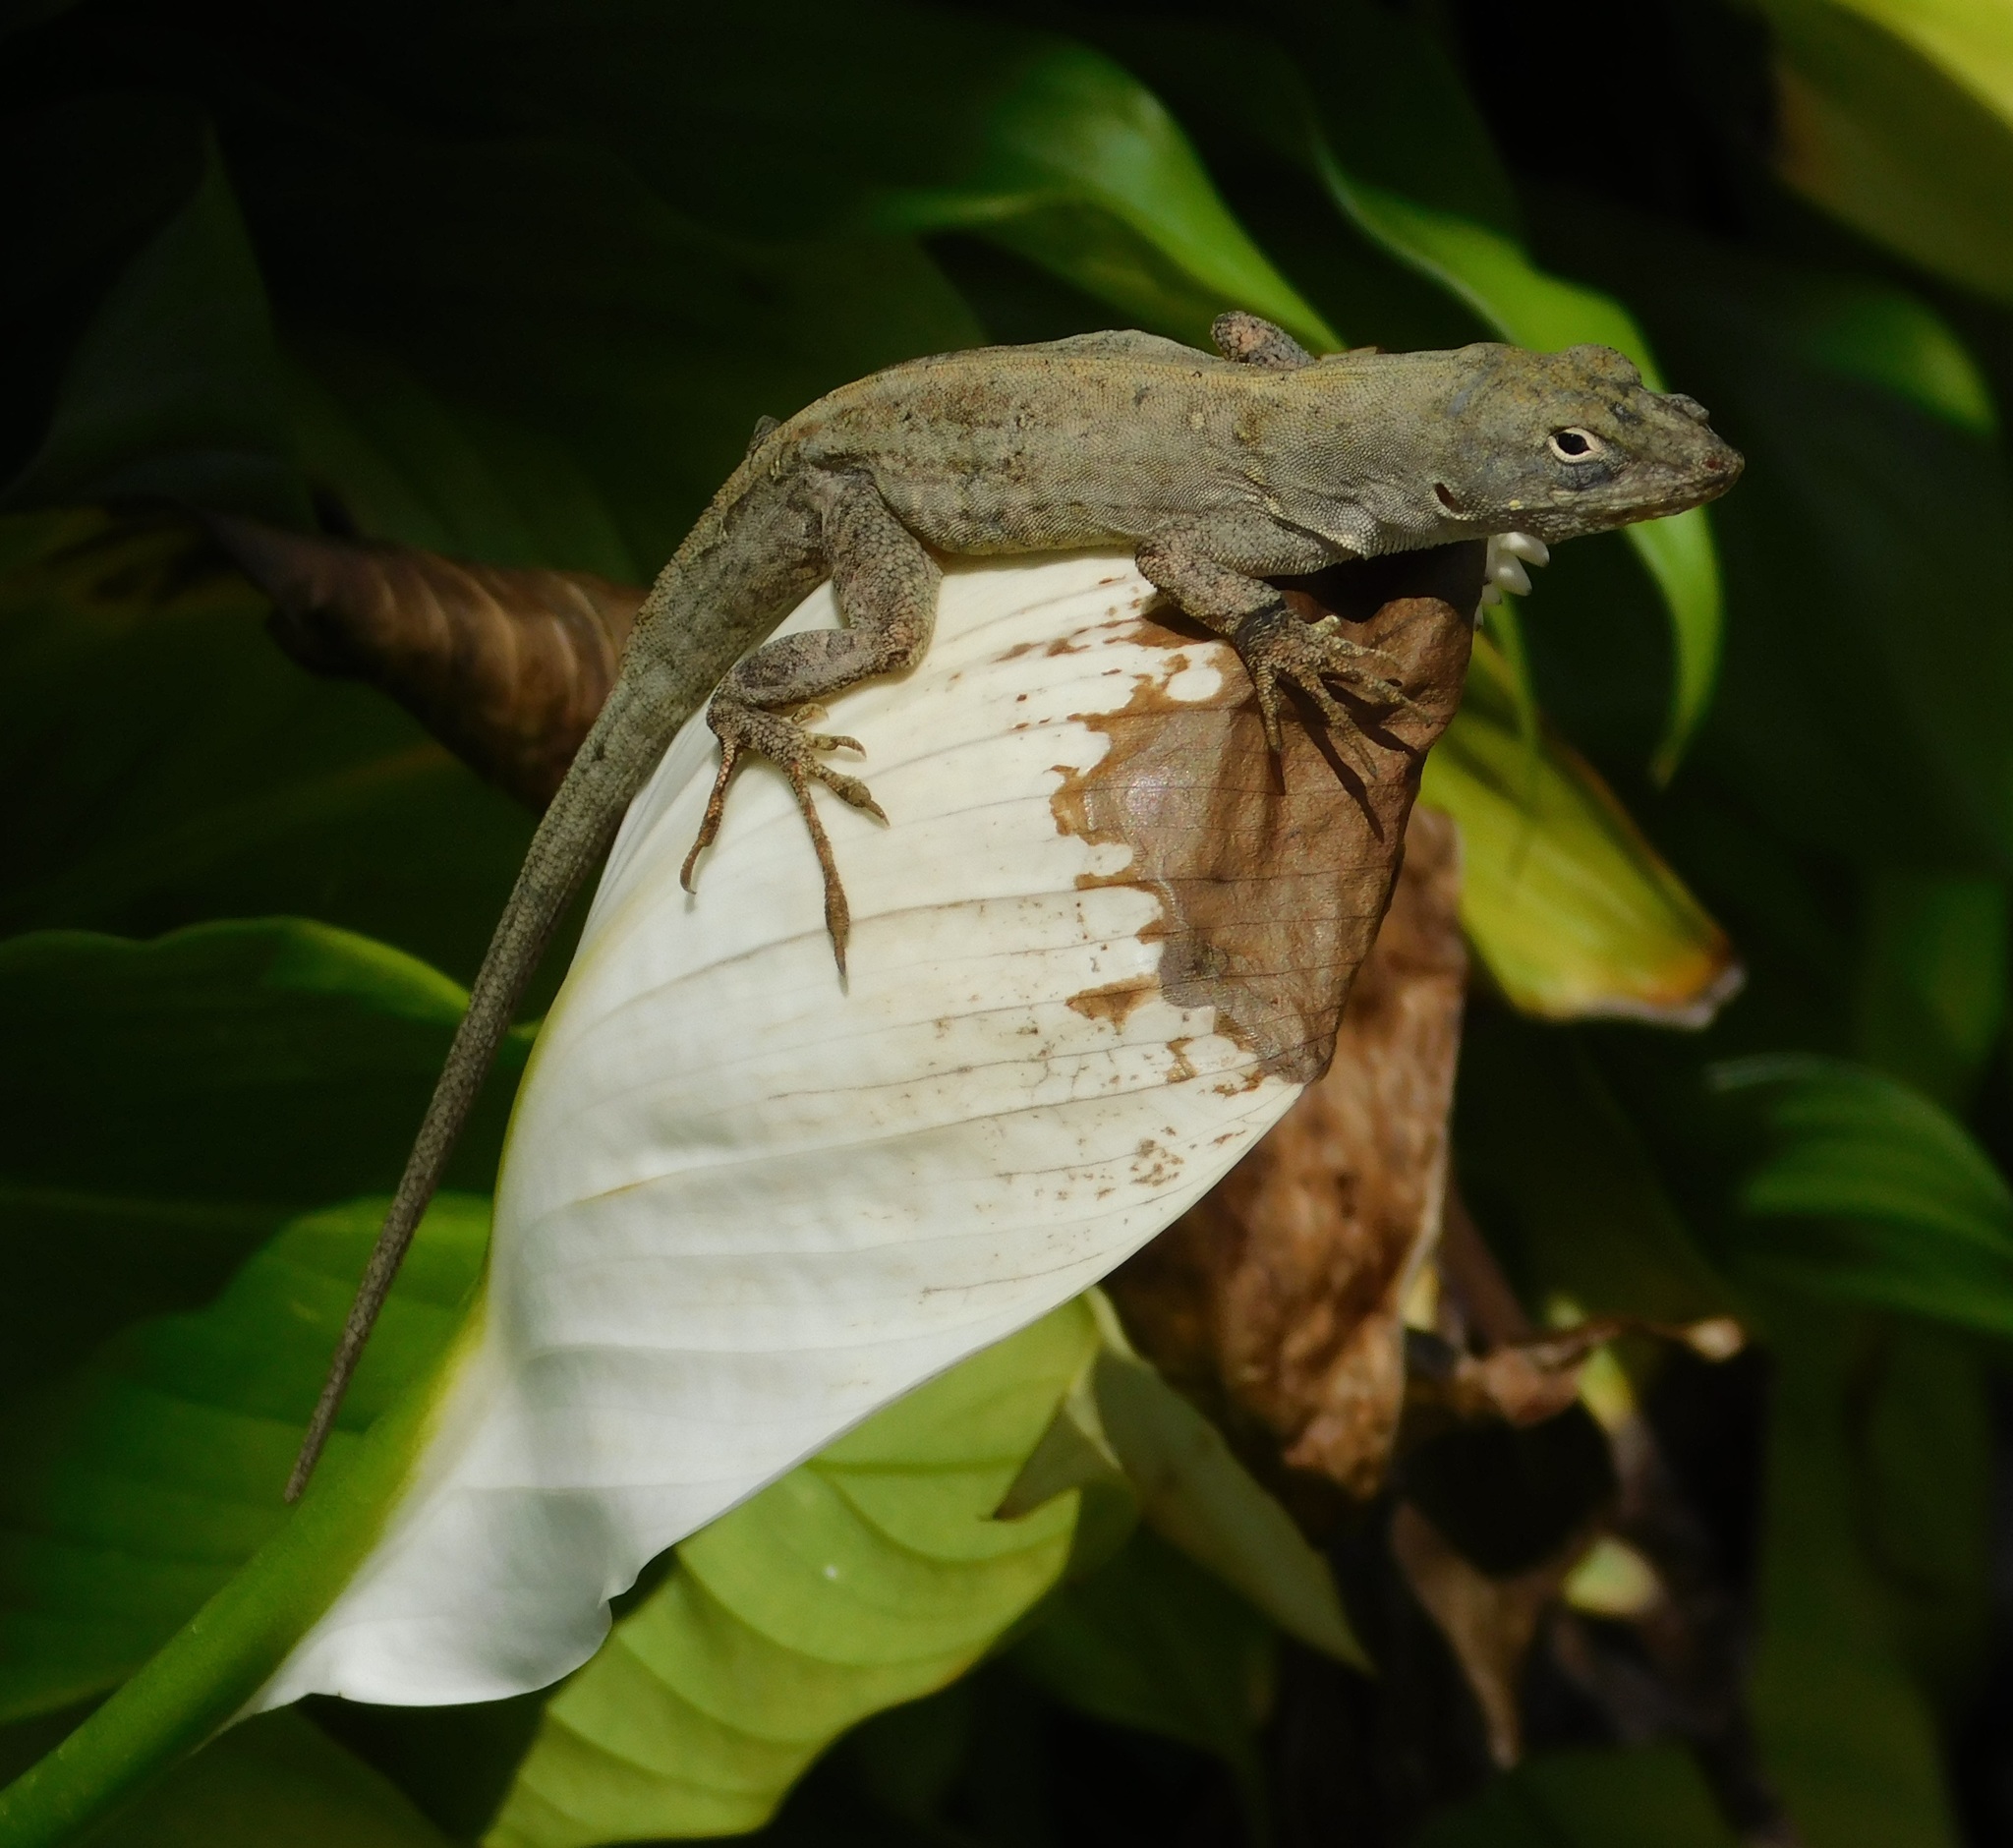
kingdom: Animalia
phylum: Chordata
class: Squamata
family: Dactyloidae
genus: Anolis
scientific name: Anolis sagrei
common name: Brown anole
